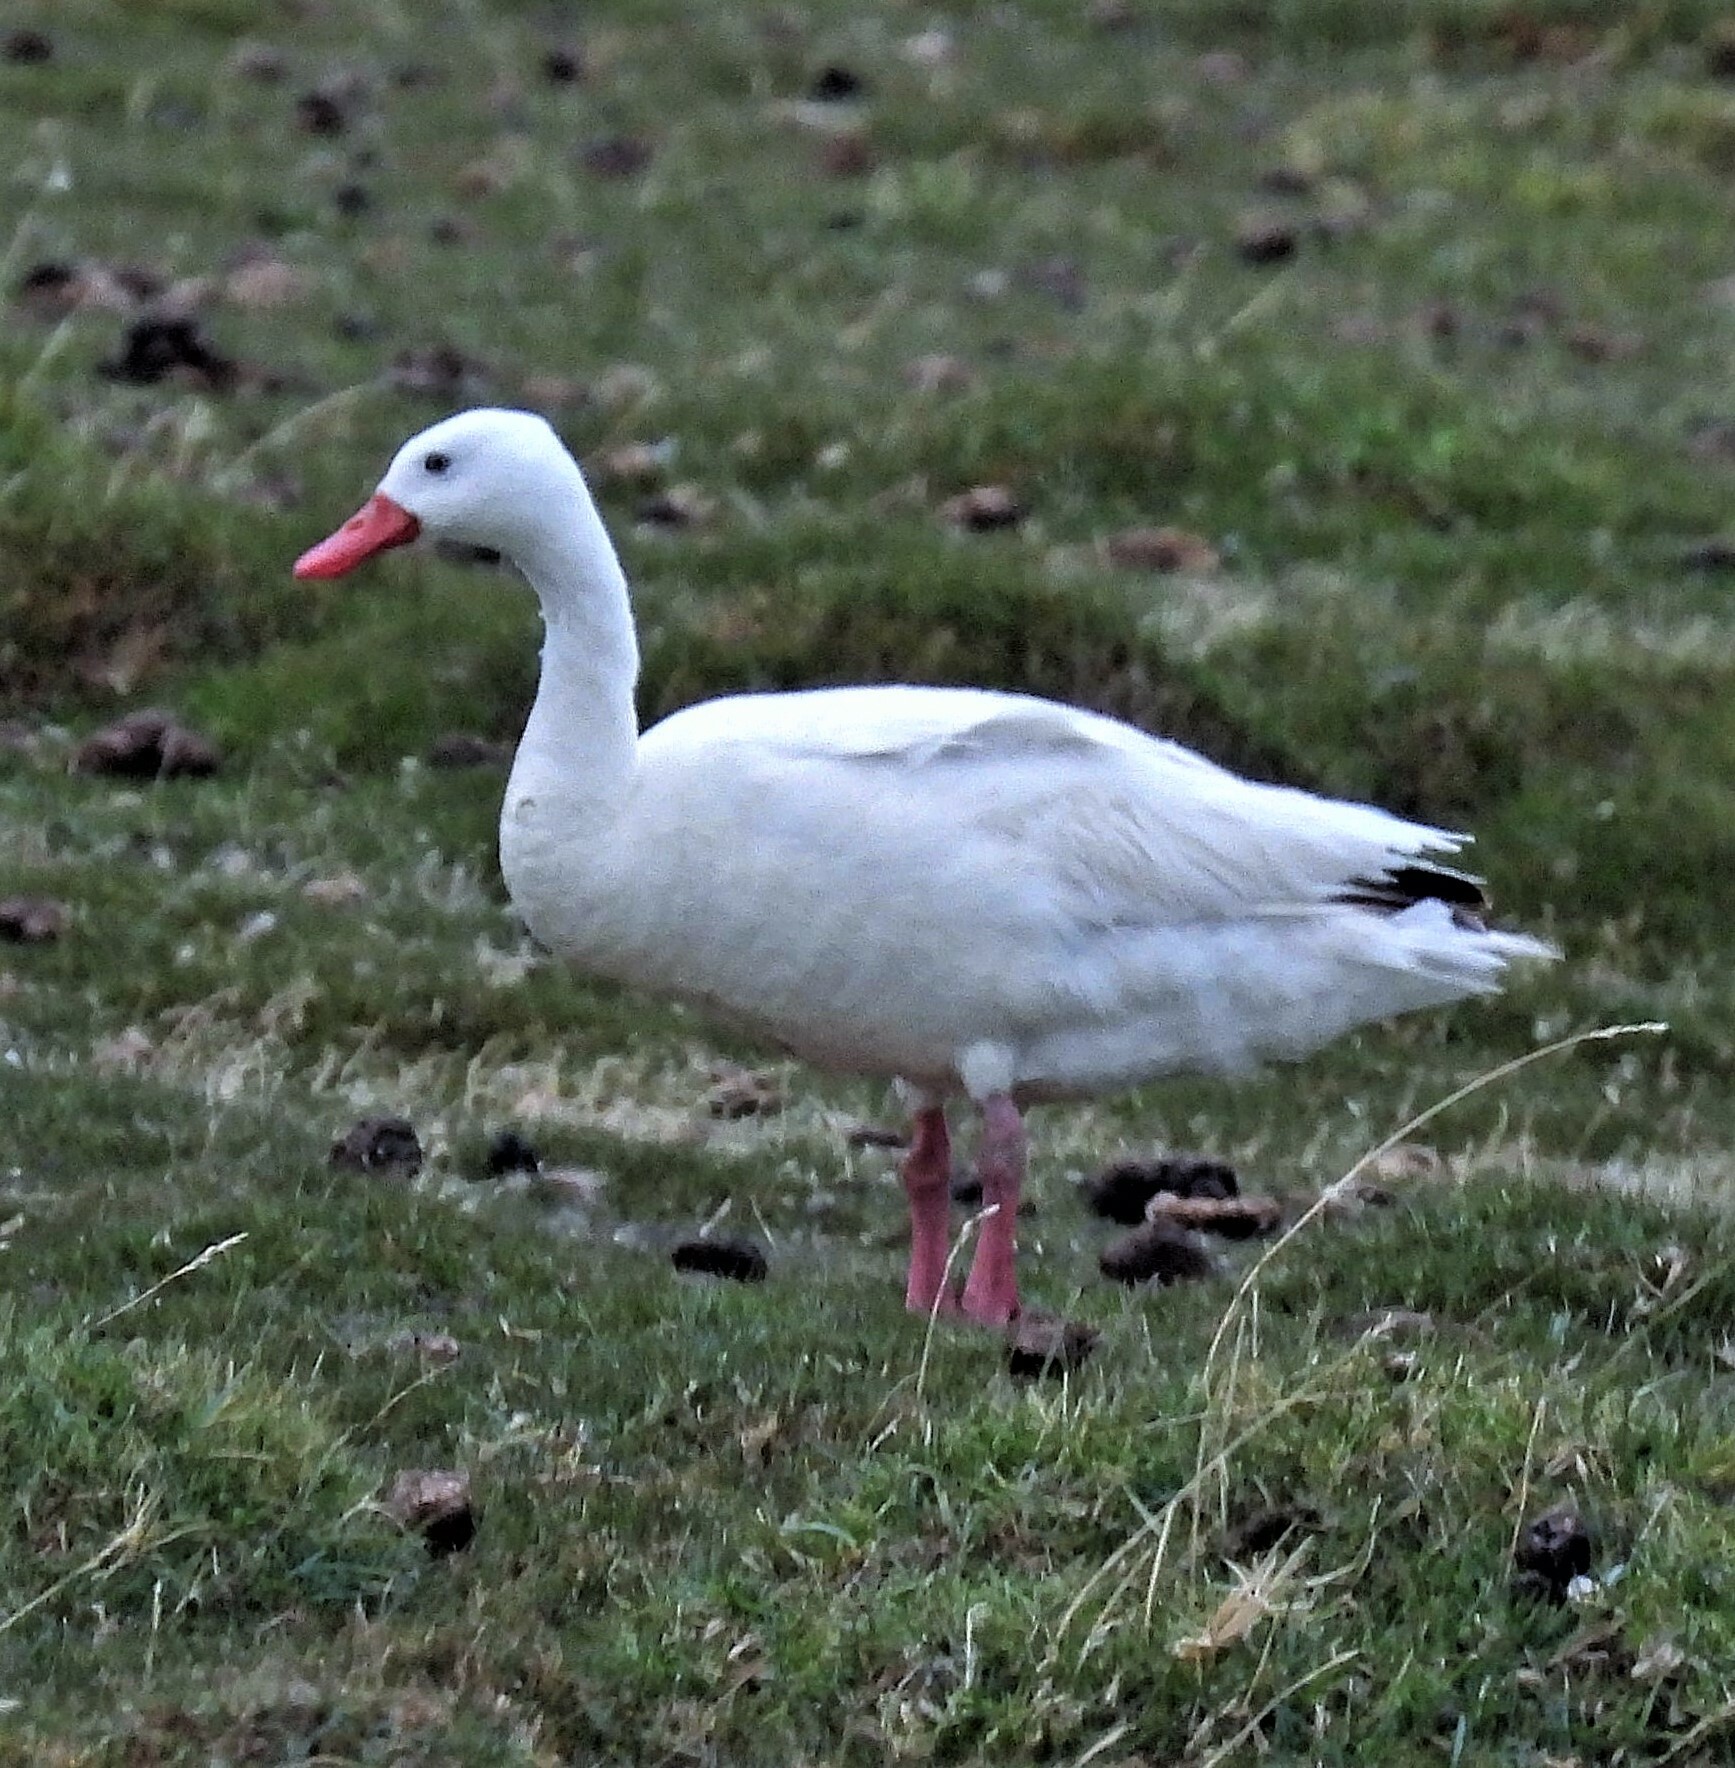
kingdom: Animalia
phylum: Chordata
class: Aves
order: Anseriformes
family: Anatidae
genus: Coscoroba
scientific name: Coscoroba coscoroba
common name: Coscoroba swan
